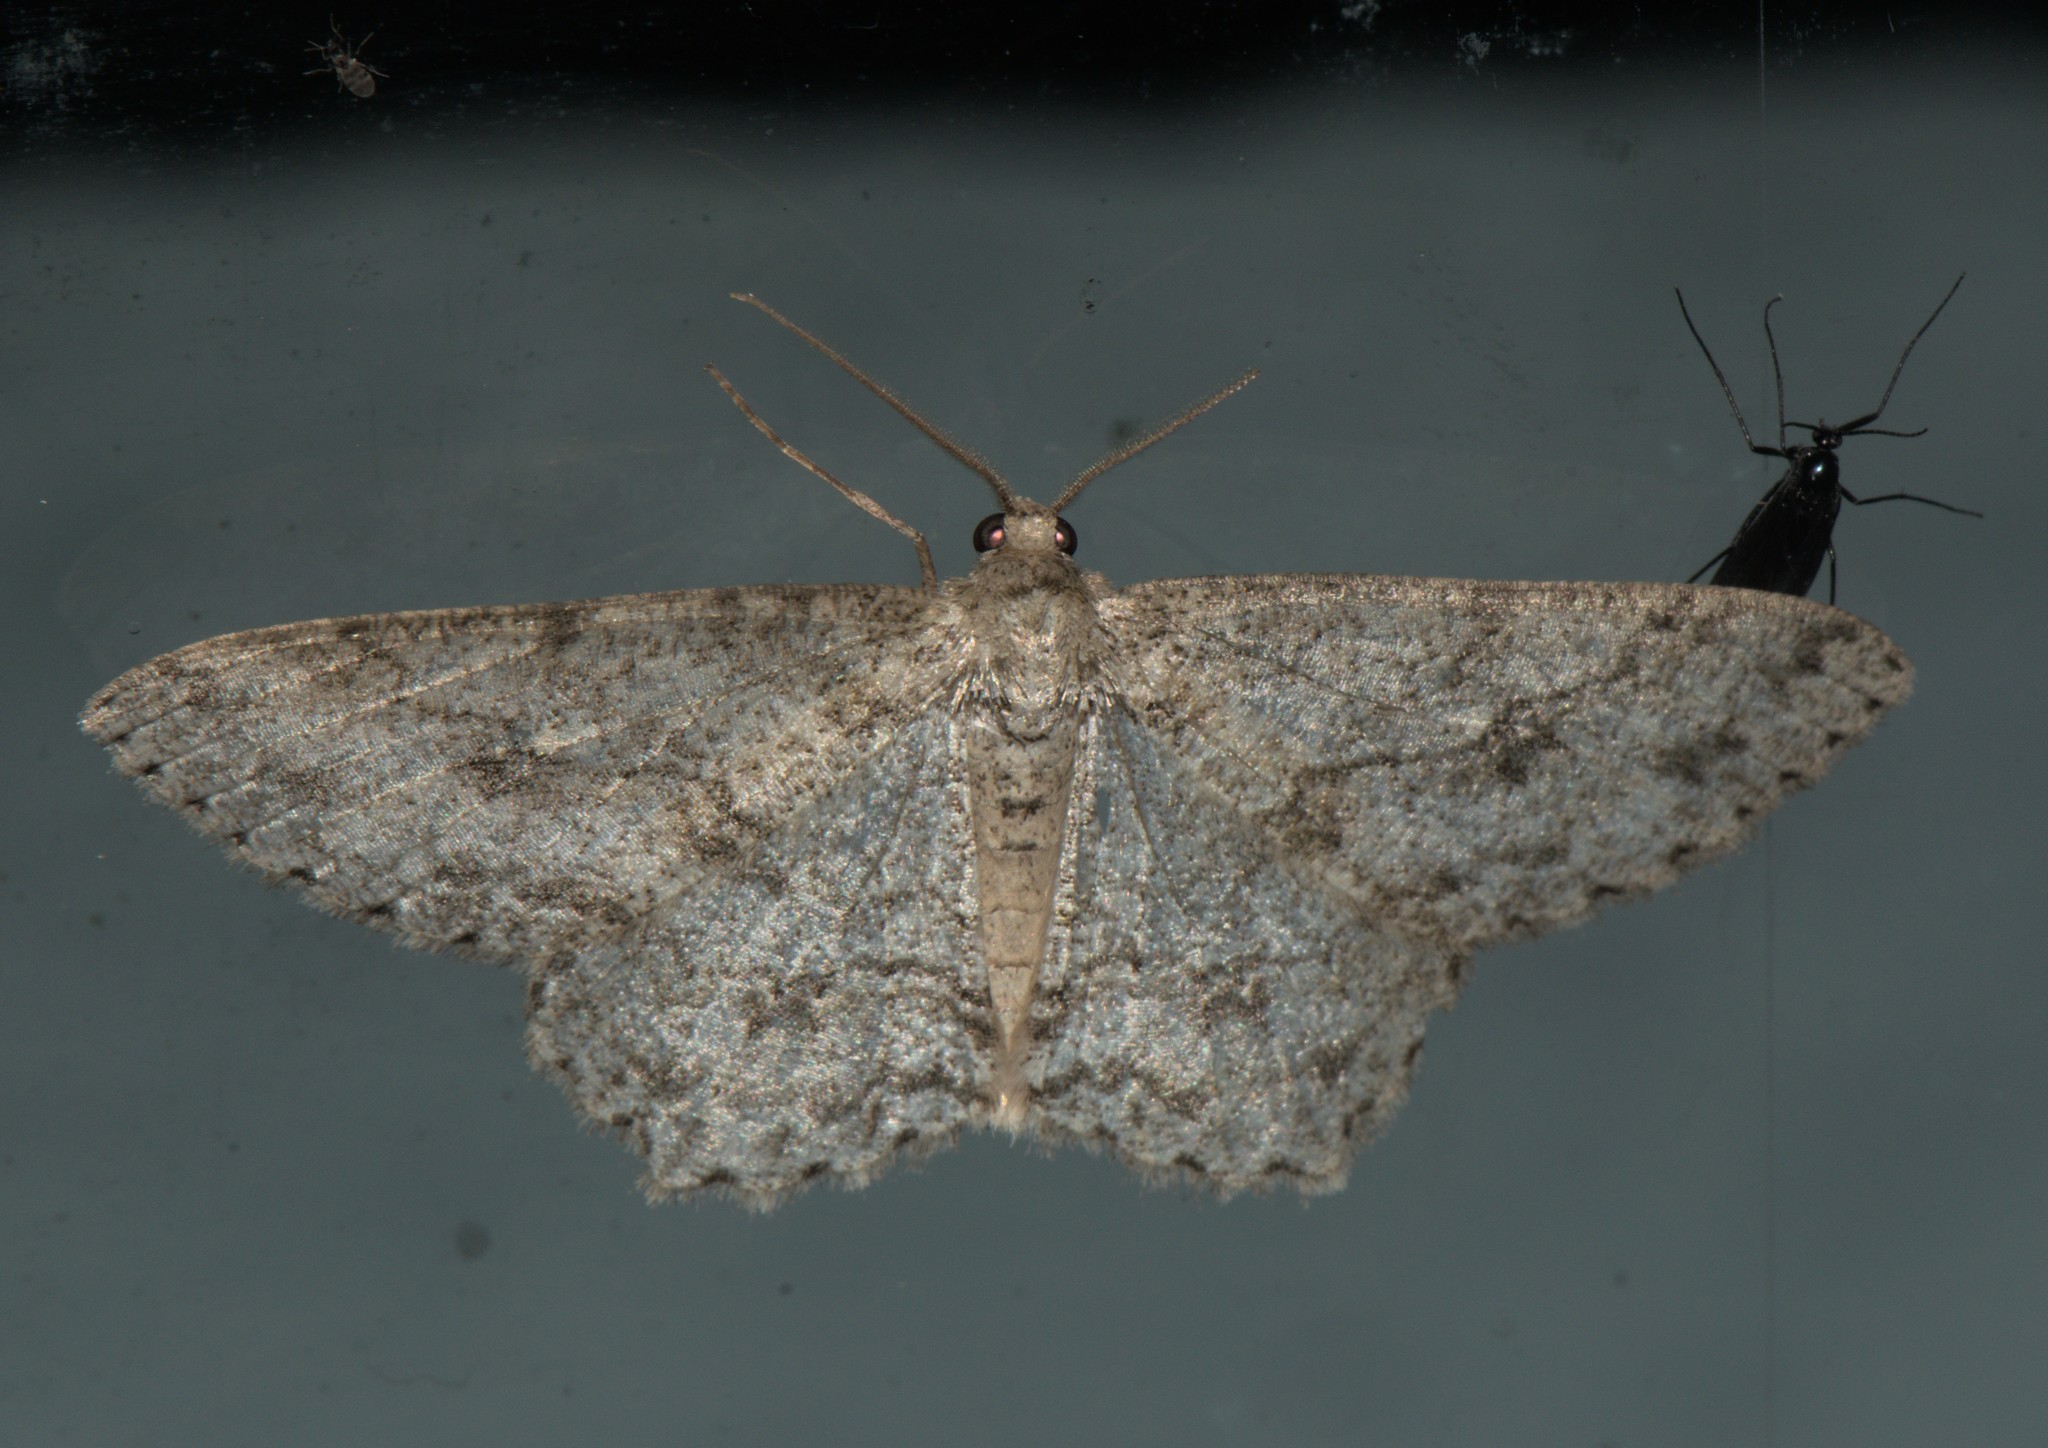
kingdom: Animalia
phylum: Arthropoda
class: Insecta
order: Lepidoptera
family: Geometridae
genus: Ectropis
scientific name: Ectropis dentilineata
